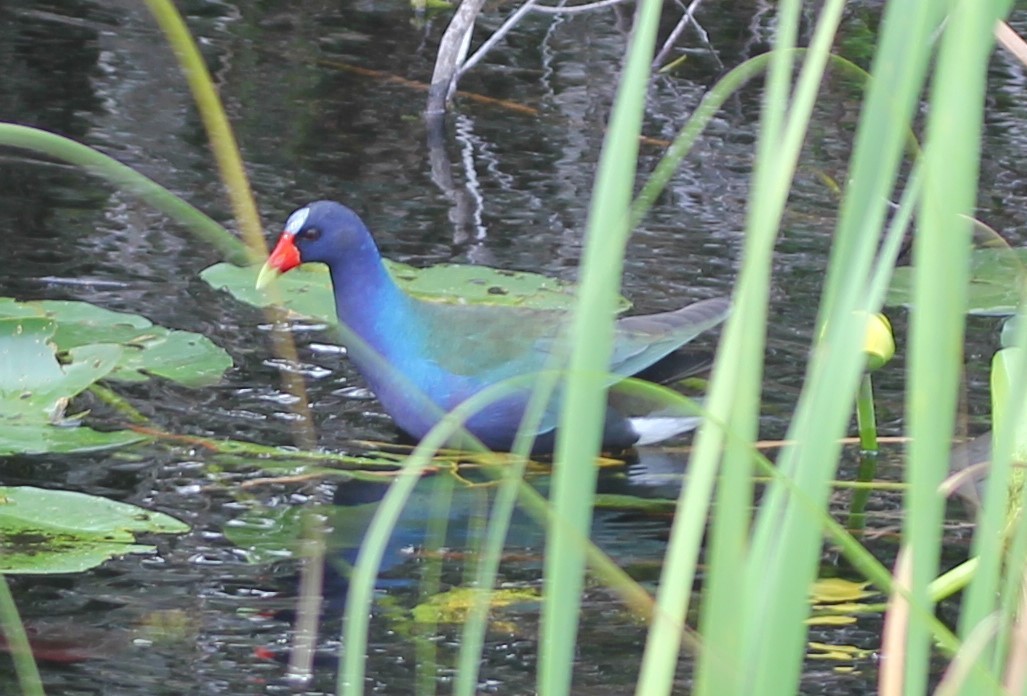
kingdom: Animalia
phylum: Chordata
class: Aves
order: Gruiformes
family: Rallidae
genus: Porphyrio
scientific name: Porphyrio martinica
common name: Purple gallinule
